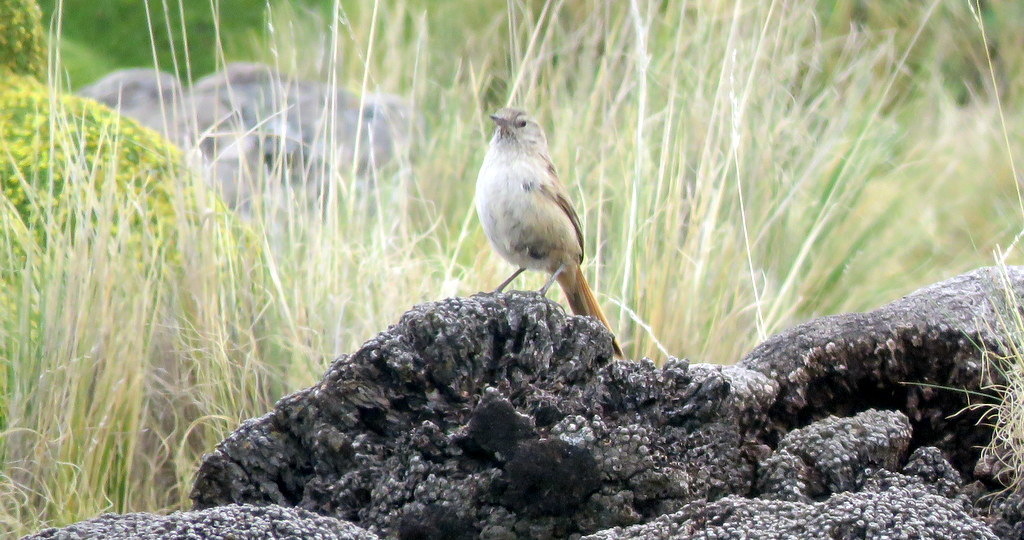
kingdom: Animalia
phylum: Chordata
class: Aves
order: Passeriformes
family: Furnariidae
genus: Asthenes
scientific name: Asthenes modesta
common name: Cordilleran canastero
